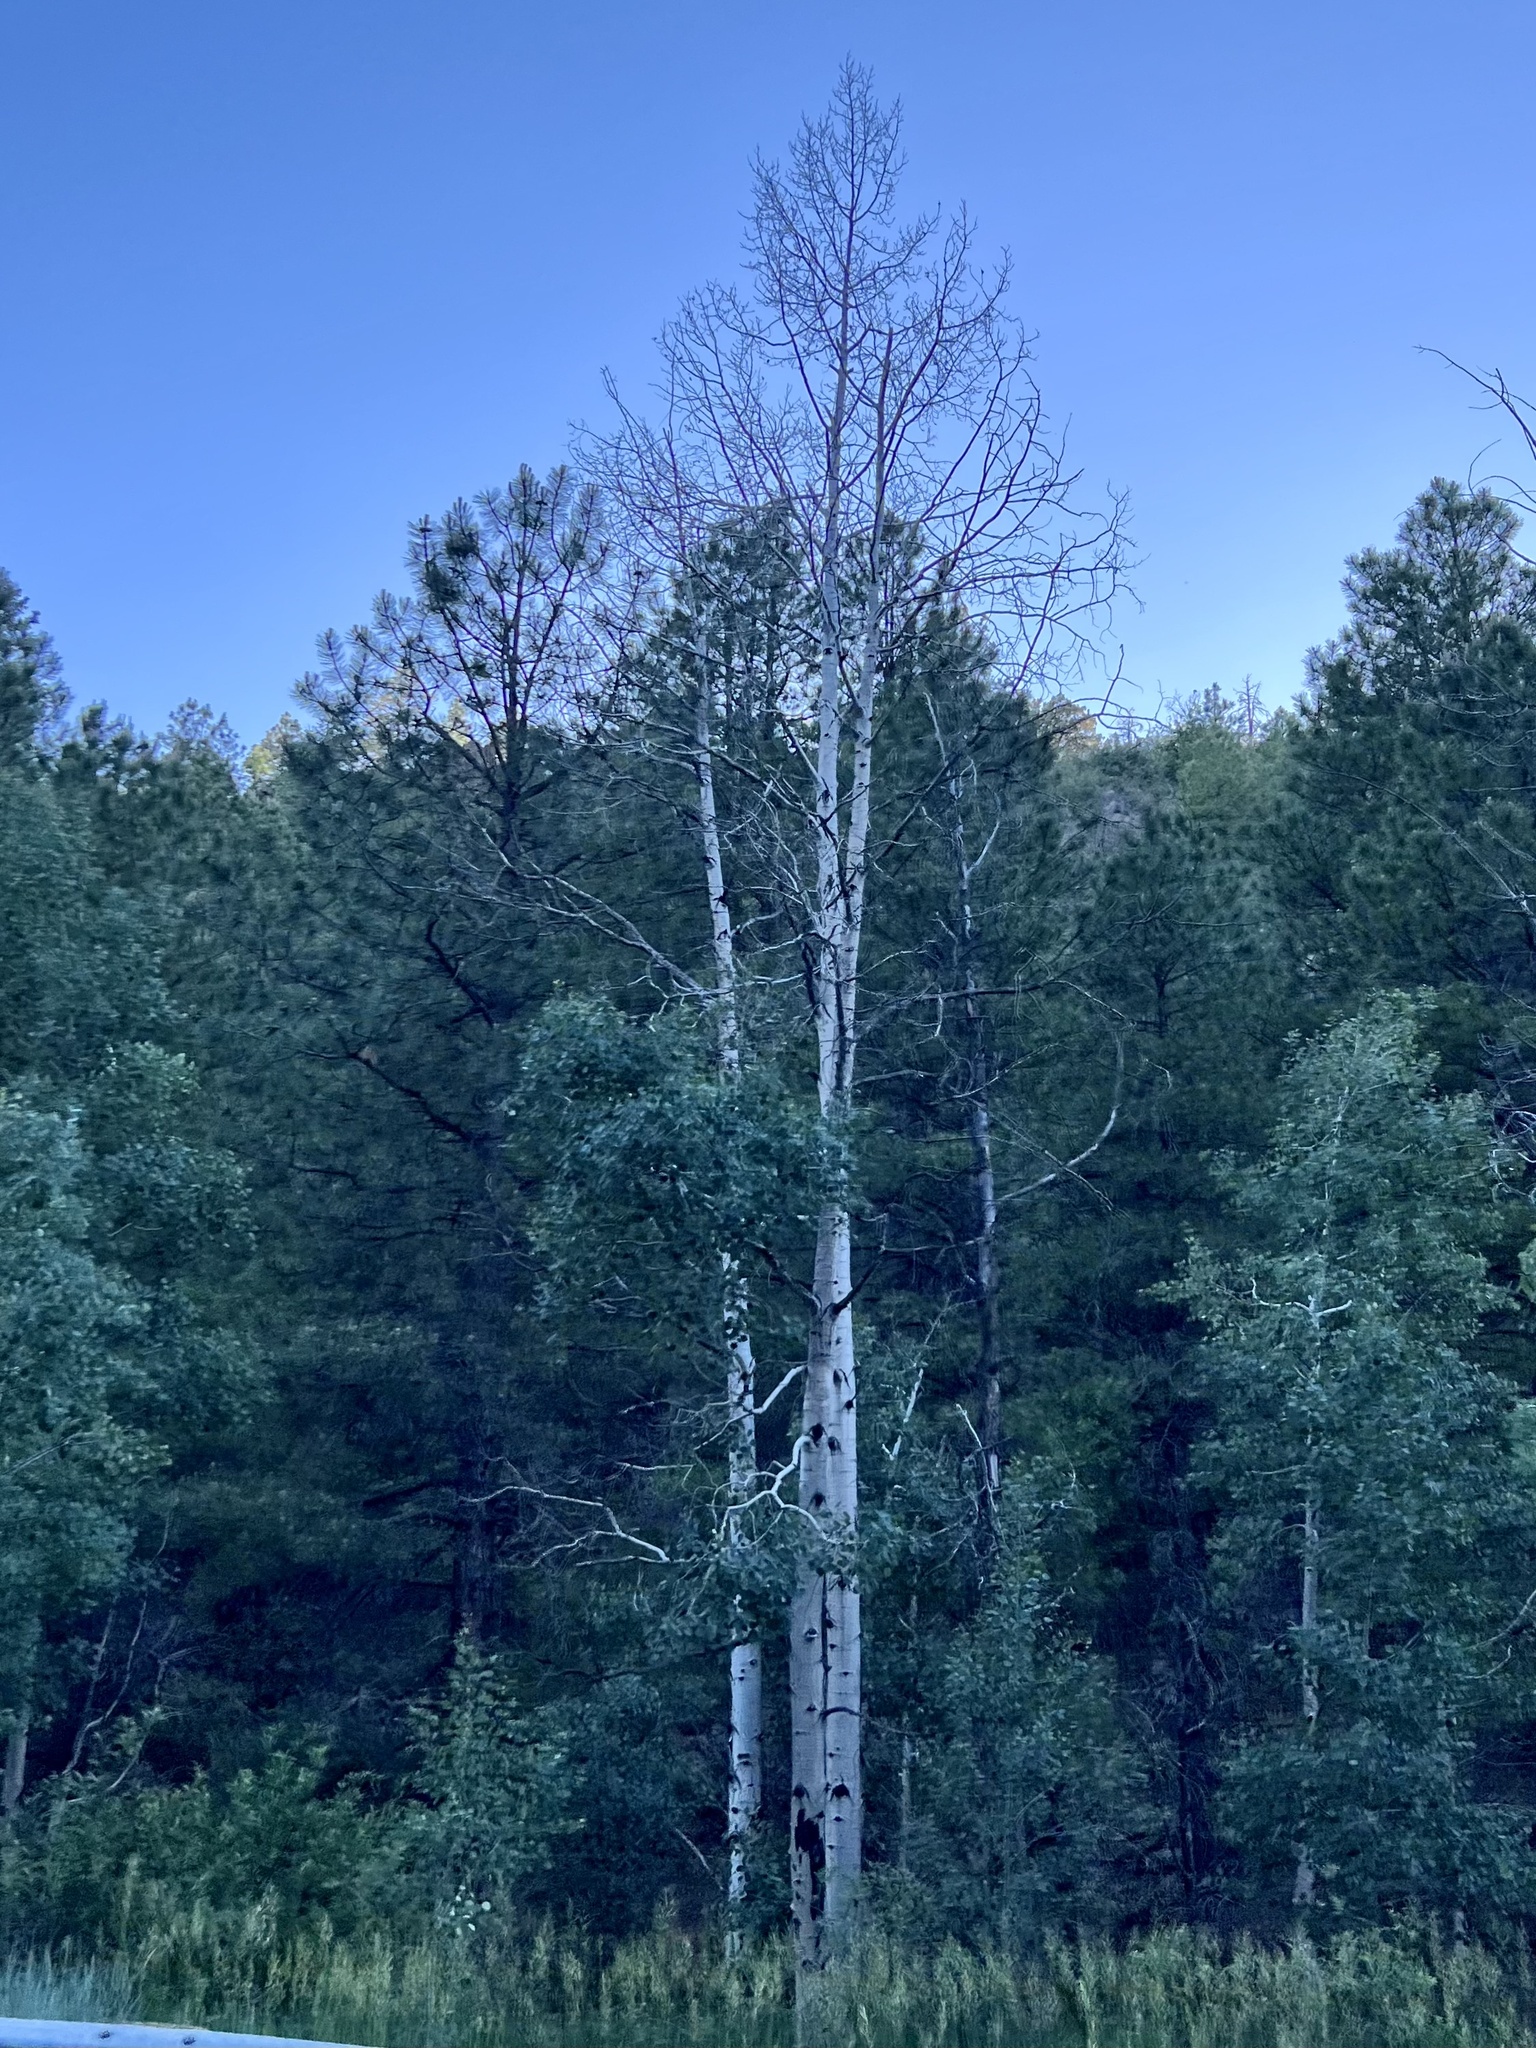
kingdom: Plantae
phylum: Tracheophyta
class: Magnoliopsida
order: Malpighiales
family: Salicaceae
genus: Populus
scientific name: Populus tremuloides
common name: Quaking aspen
